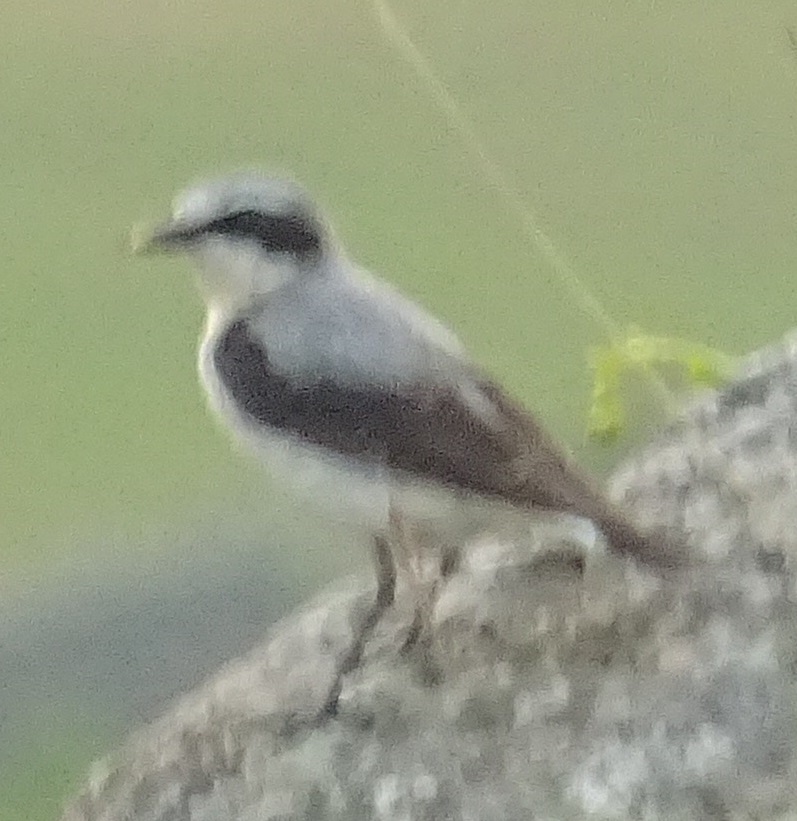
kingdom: Animalia
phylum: Chordata
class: Aves
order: Passeriformes
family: Muscicapidae
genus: Oenanthe
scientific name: Oenanthe oenanthe
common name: Northern wheatear
